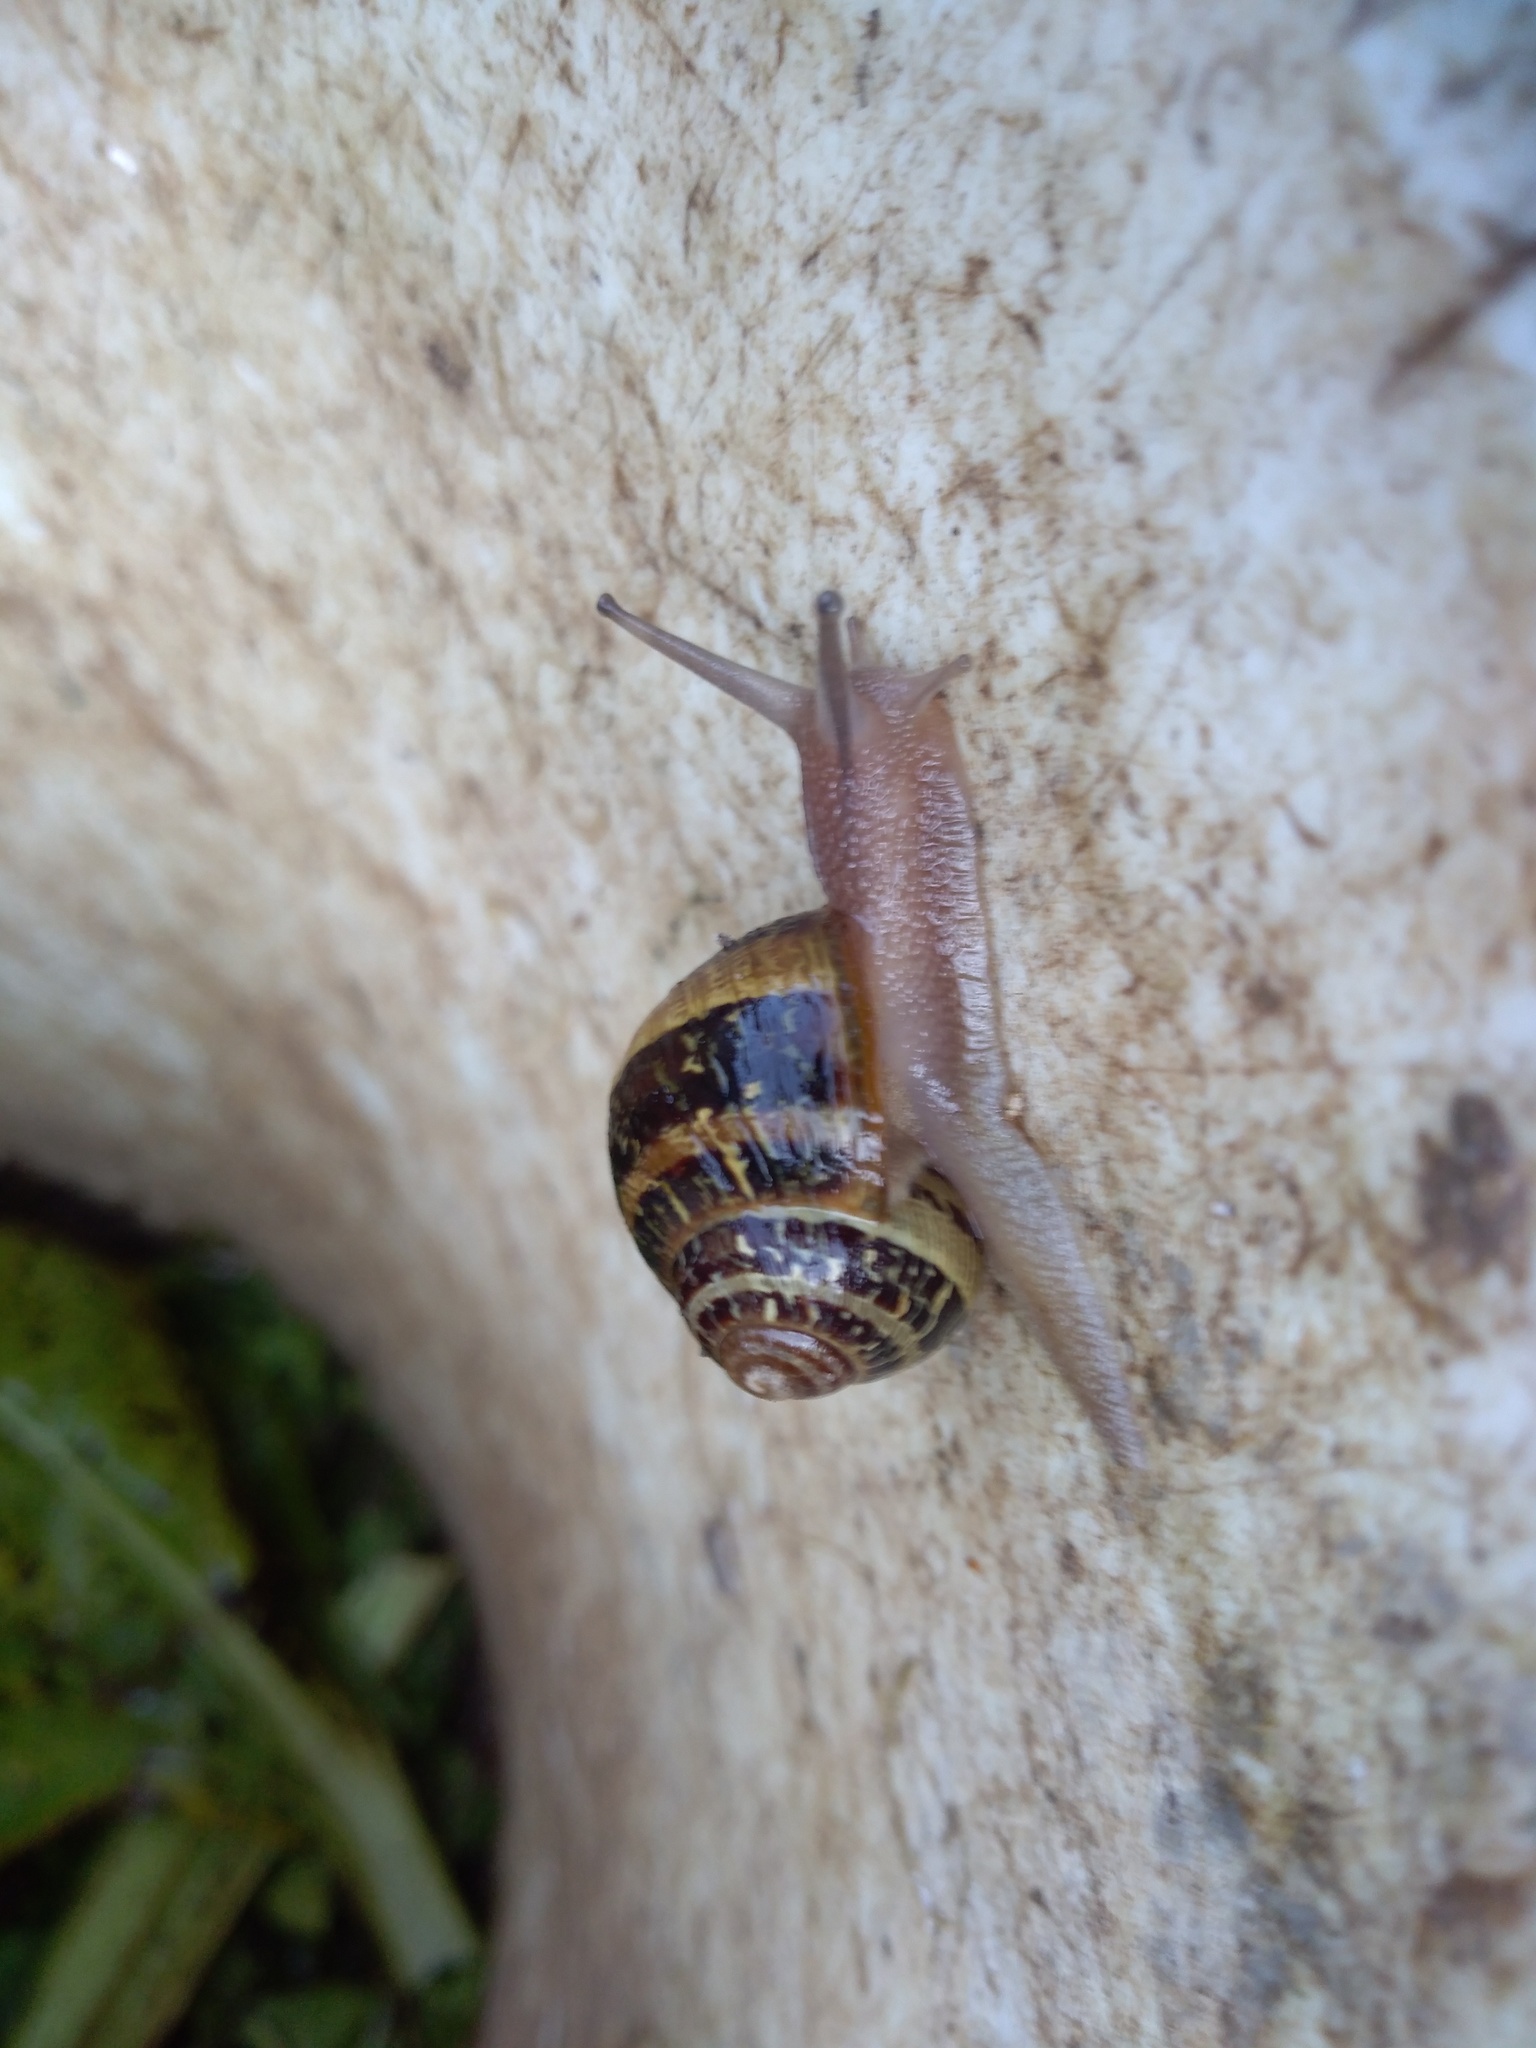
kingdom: Animalia
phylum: Mollusca
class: Gastropoda
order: Stylommatophora
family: Helicidae
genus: Cornu
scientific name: Cornu aspersum
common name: Brown garden snail
